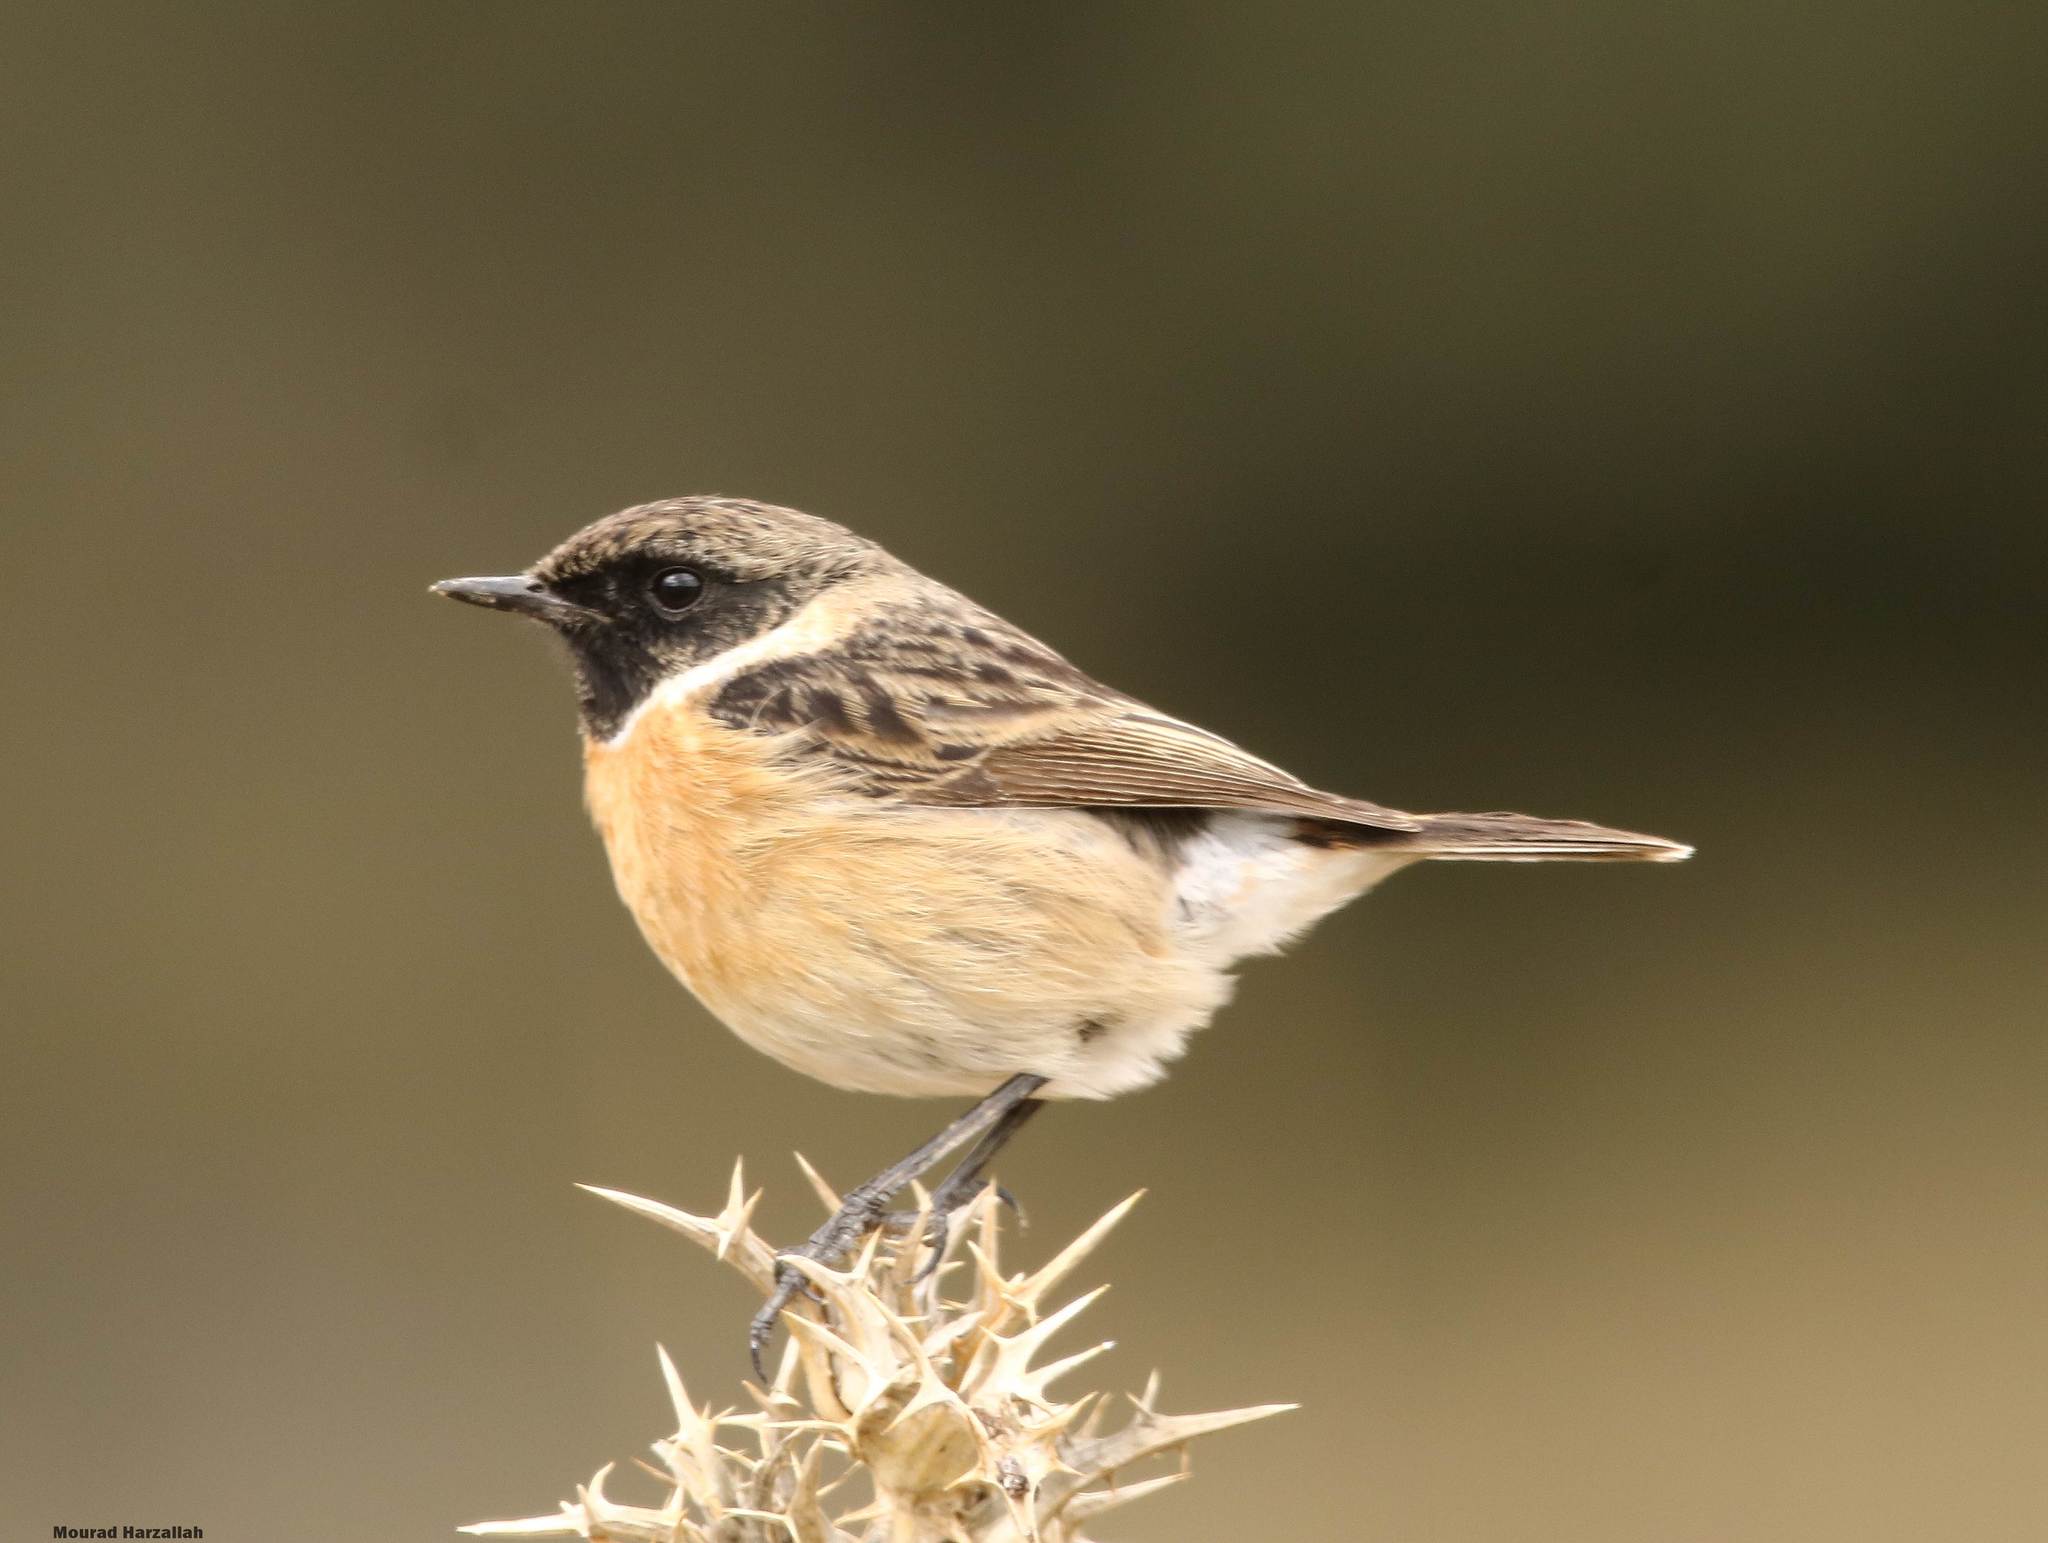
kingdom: Animalia
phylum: Chordata
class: Aves
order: Passeriformes
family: Muscicapidae
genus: Saxicola
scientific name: Saxicola rubicola
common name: European stonechat
